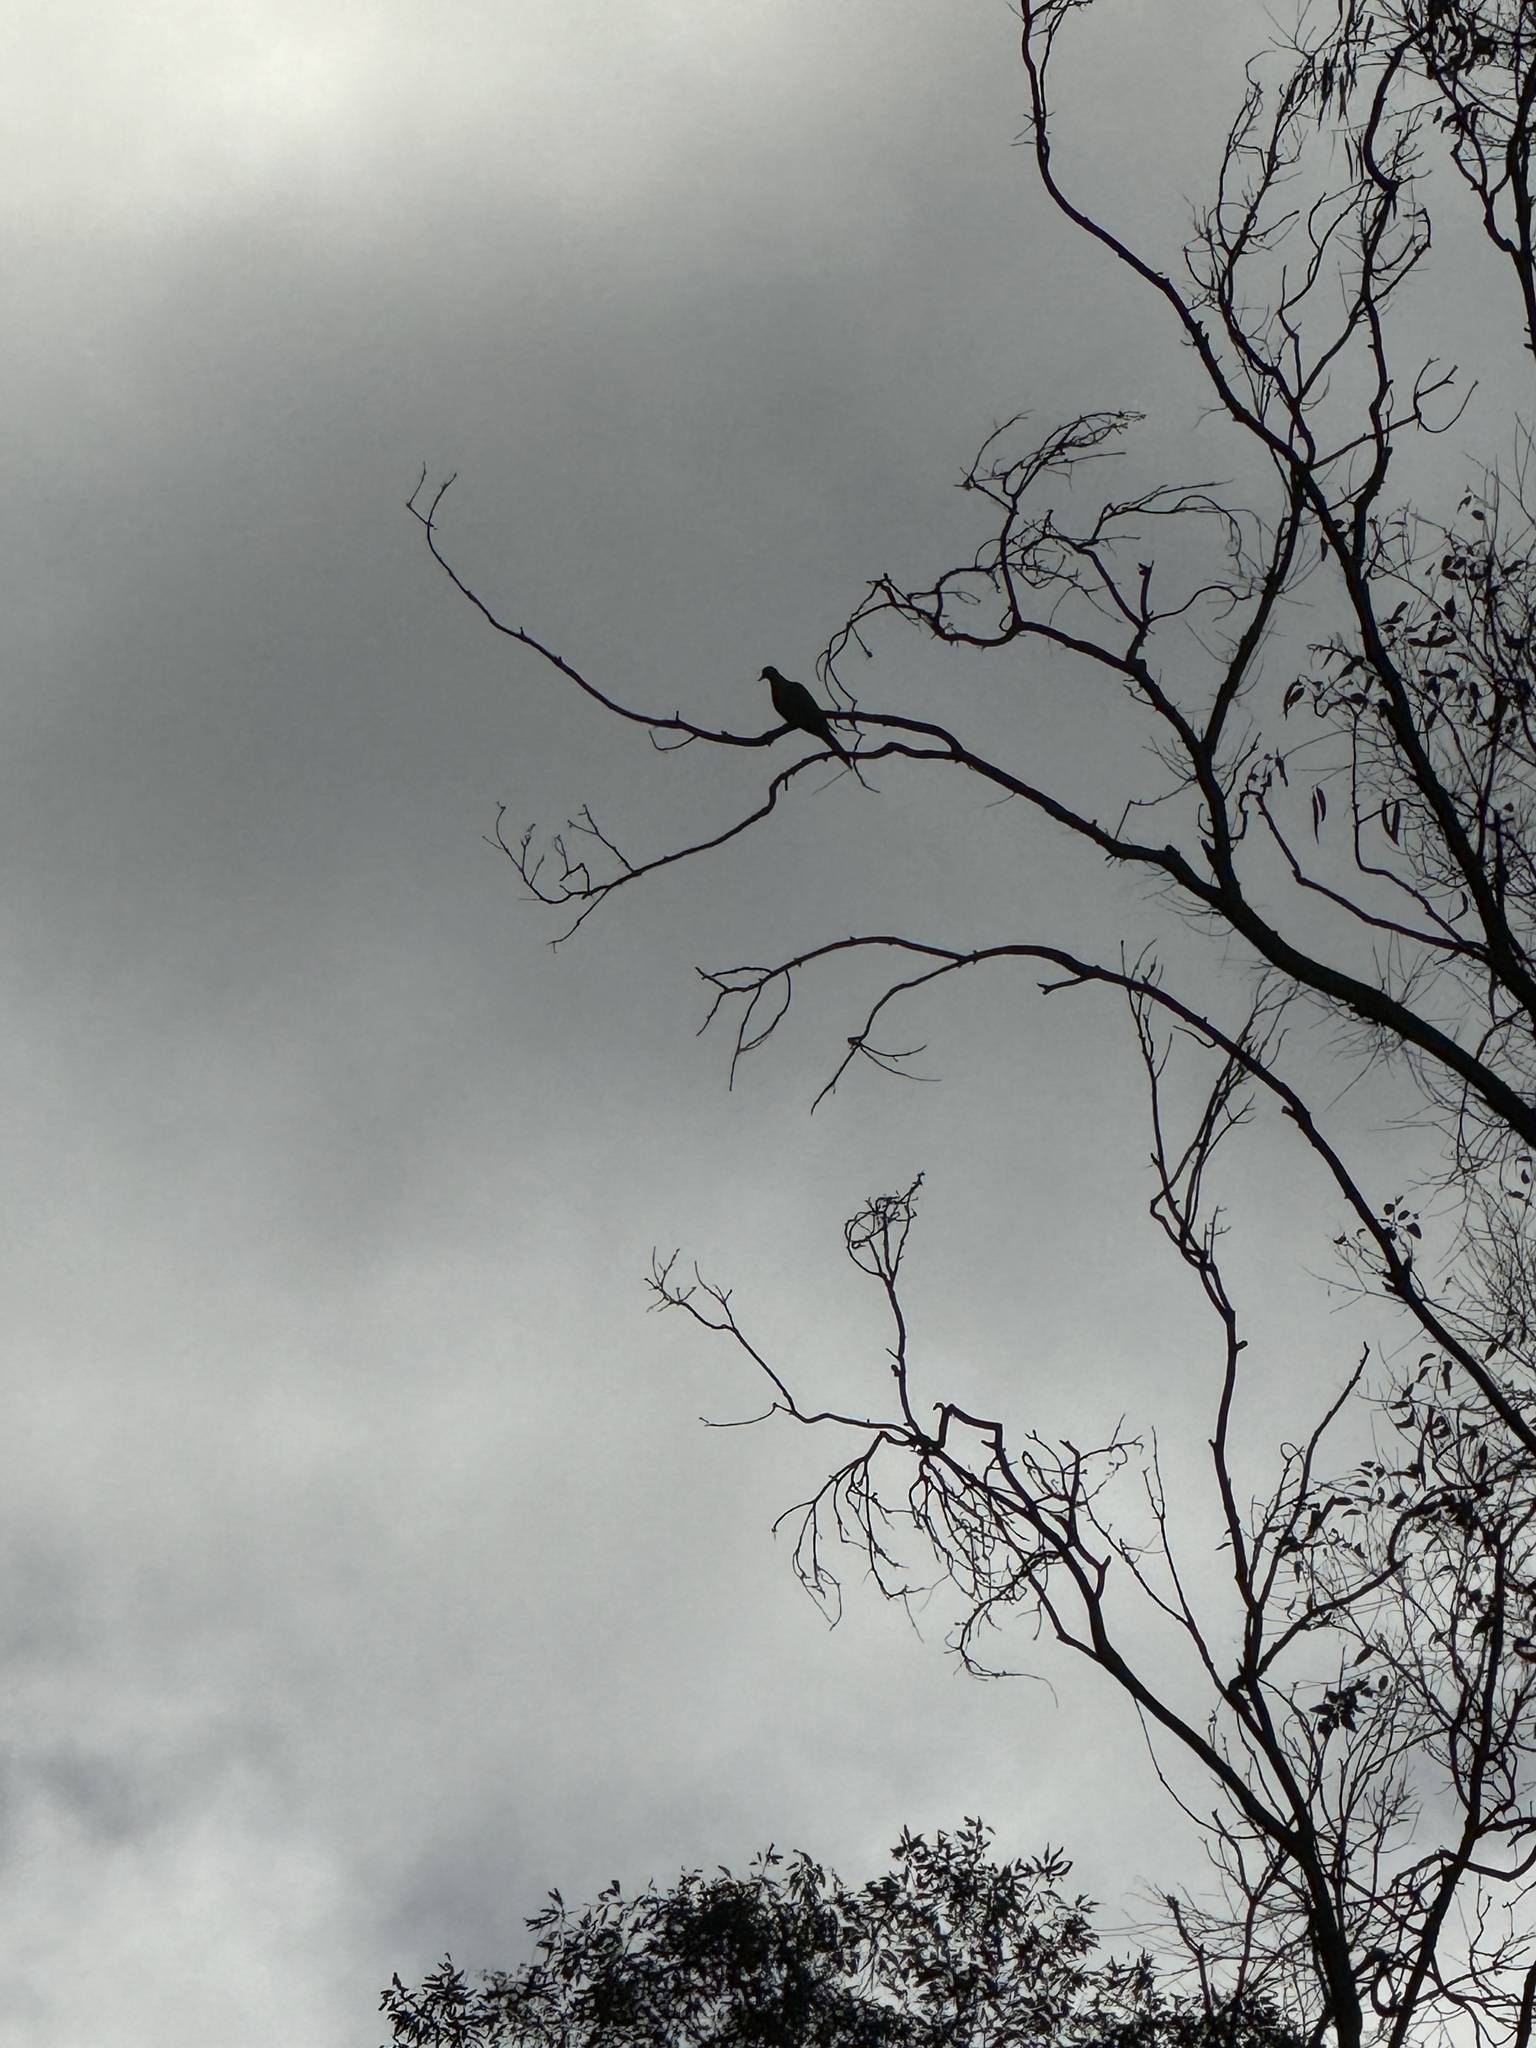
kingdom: Animalia
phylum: Chordata
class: Aves
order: Columbiformes
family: Columbidae
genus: Zenaida
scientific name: Zenaida macroura
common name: Mourning dove
